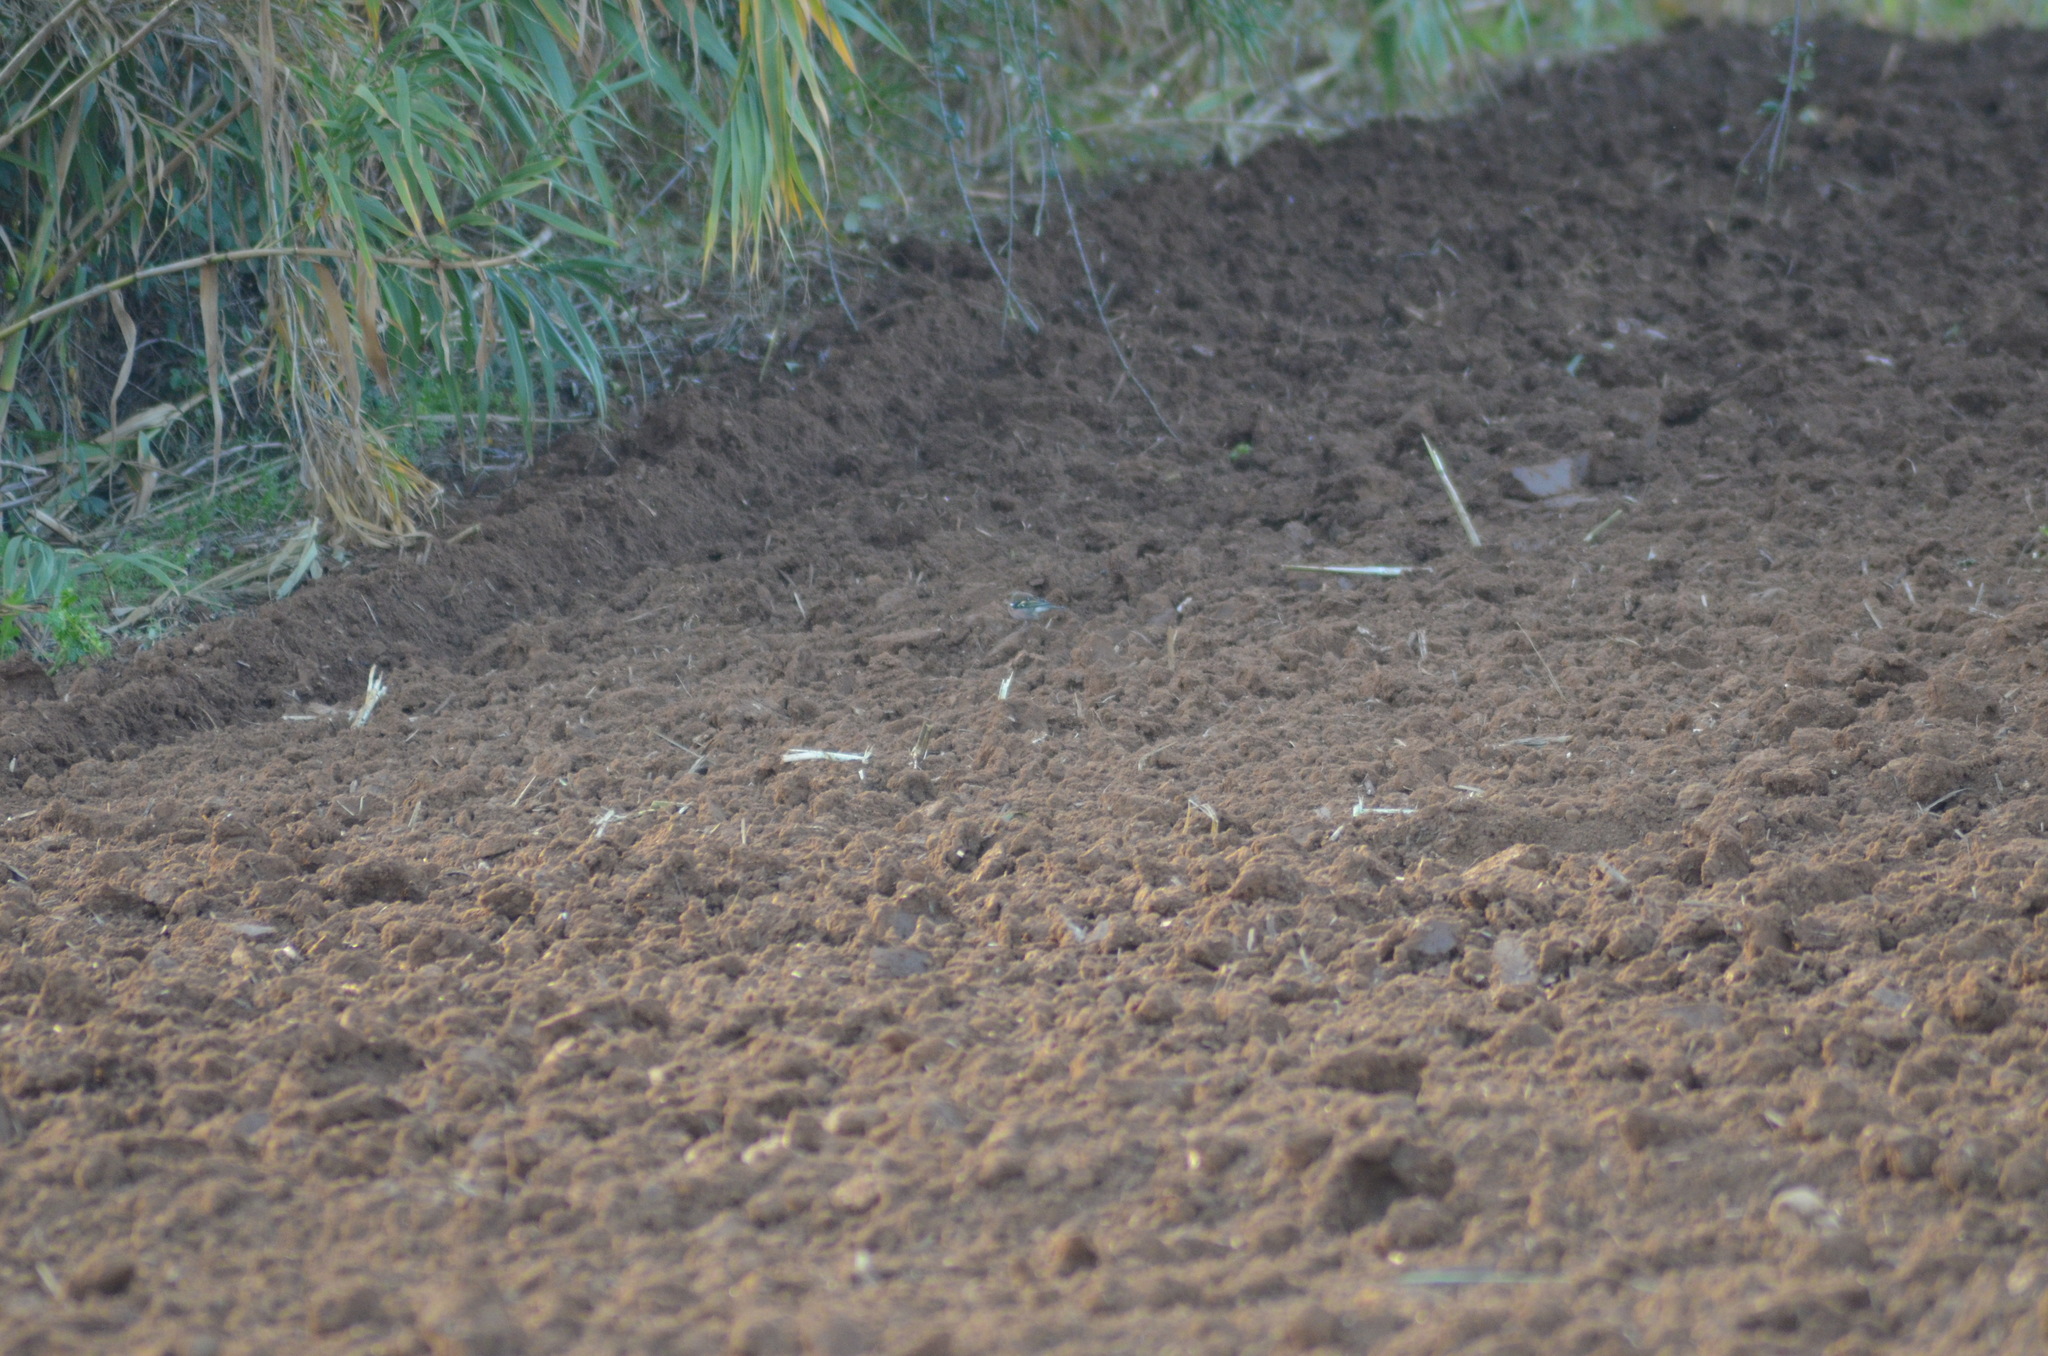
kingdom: Animalia
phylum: Chordata
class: Aves
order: Passeriformes
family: Fringillidae
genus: Fringilla
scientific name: Fringilla coelebs
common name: Common chaffinch
